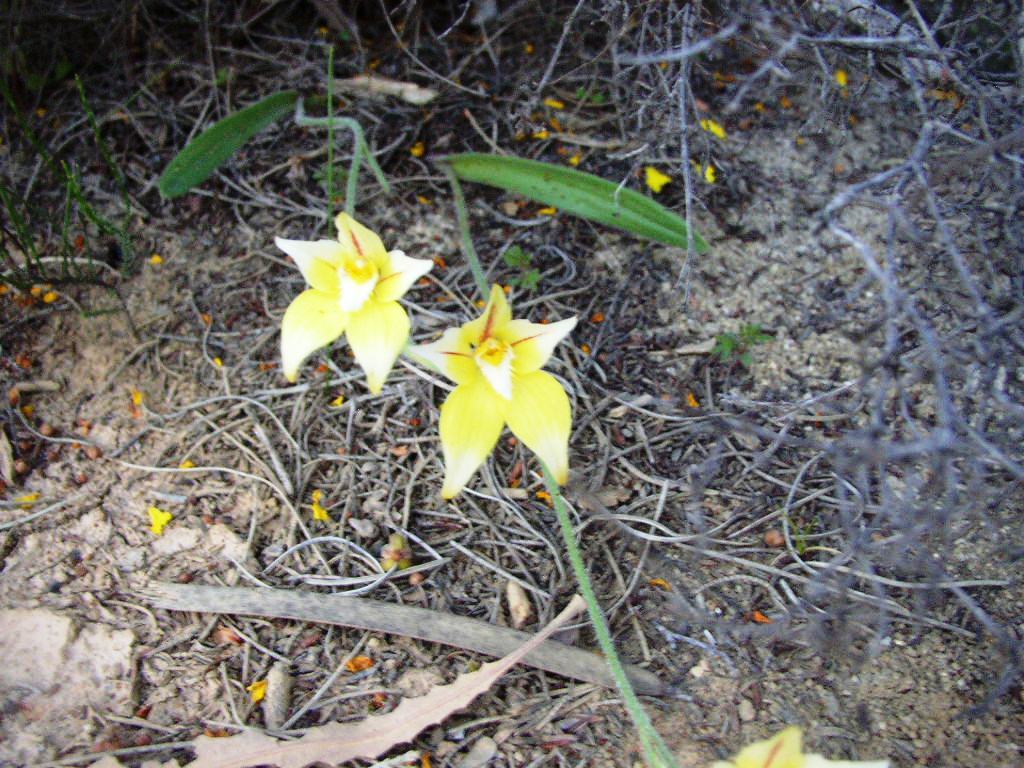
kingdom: Plantae
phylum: Tracheophyta
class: Liliopsida
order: Asparagales
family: Orchidaceae
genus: Caladenia
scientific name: Caladenia flava
